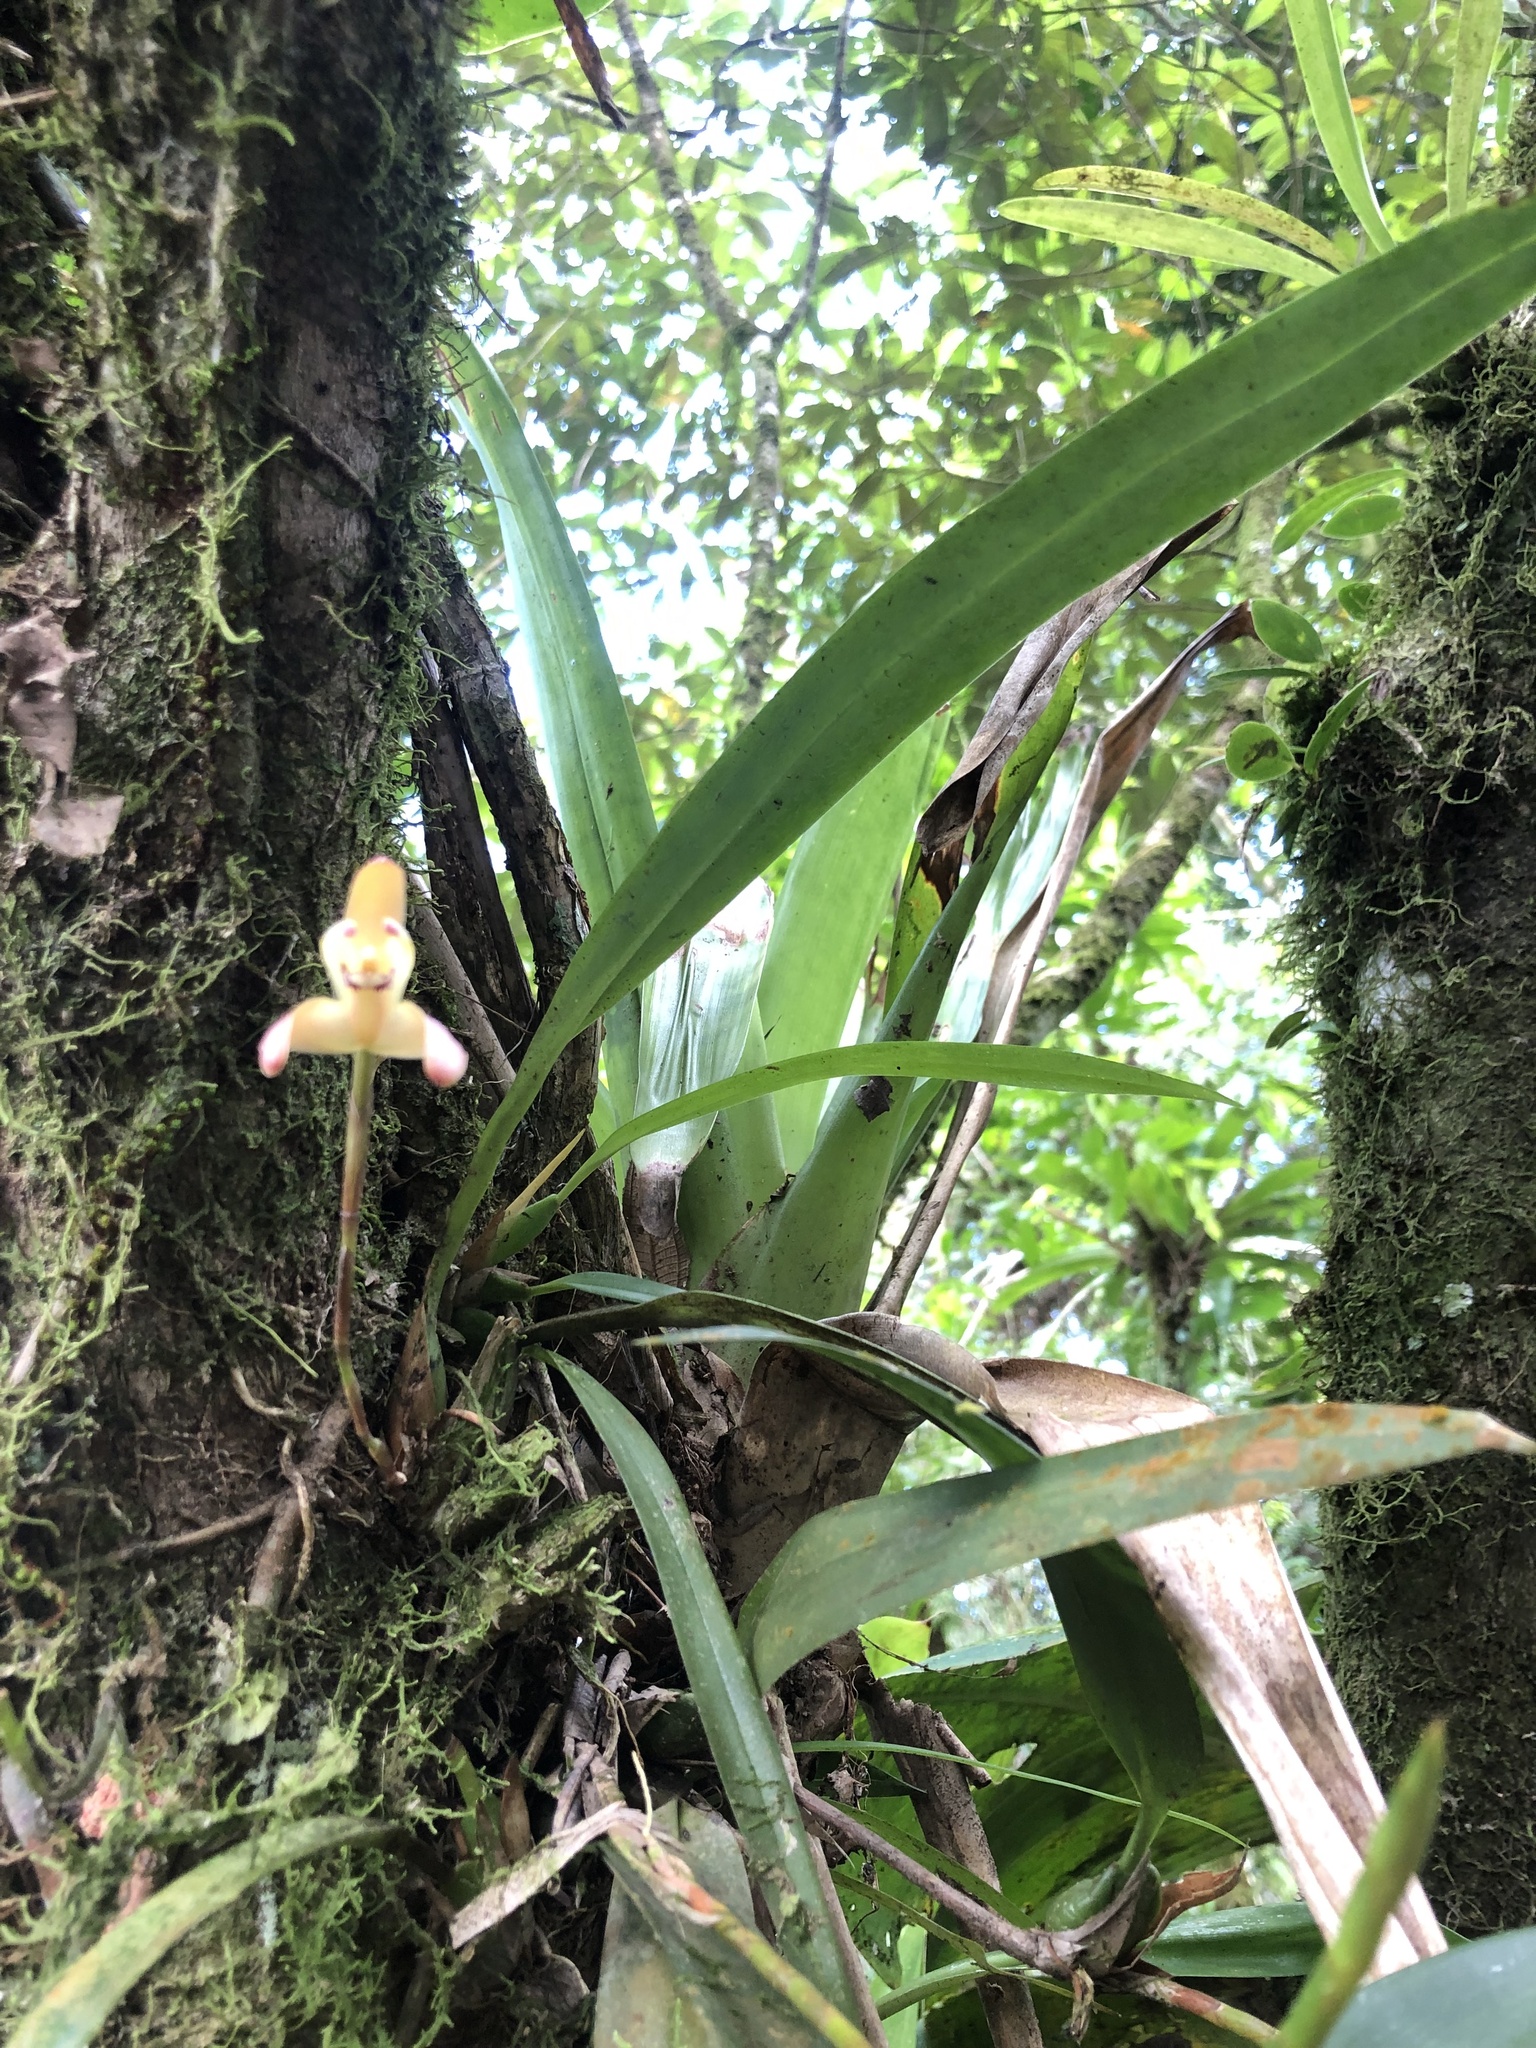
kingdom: Plantae
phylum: Tracheophyta
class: Liliopsida
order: Asparagales
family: Orchidaceae
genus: Maxillaria
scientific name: Maxillaria porrecta
